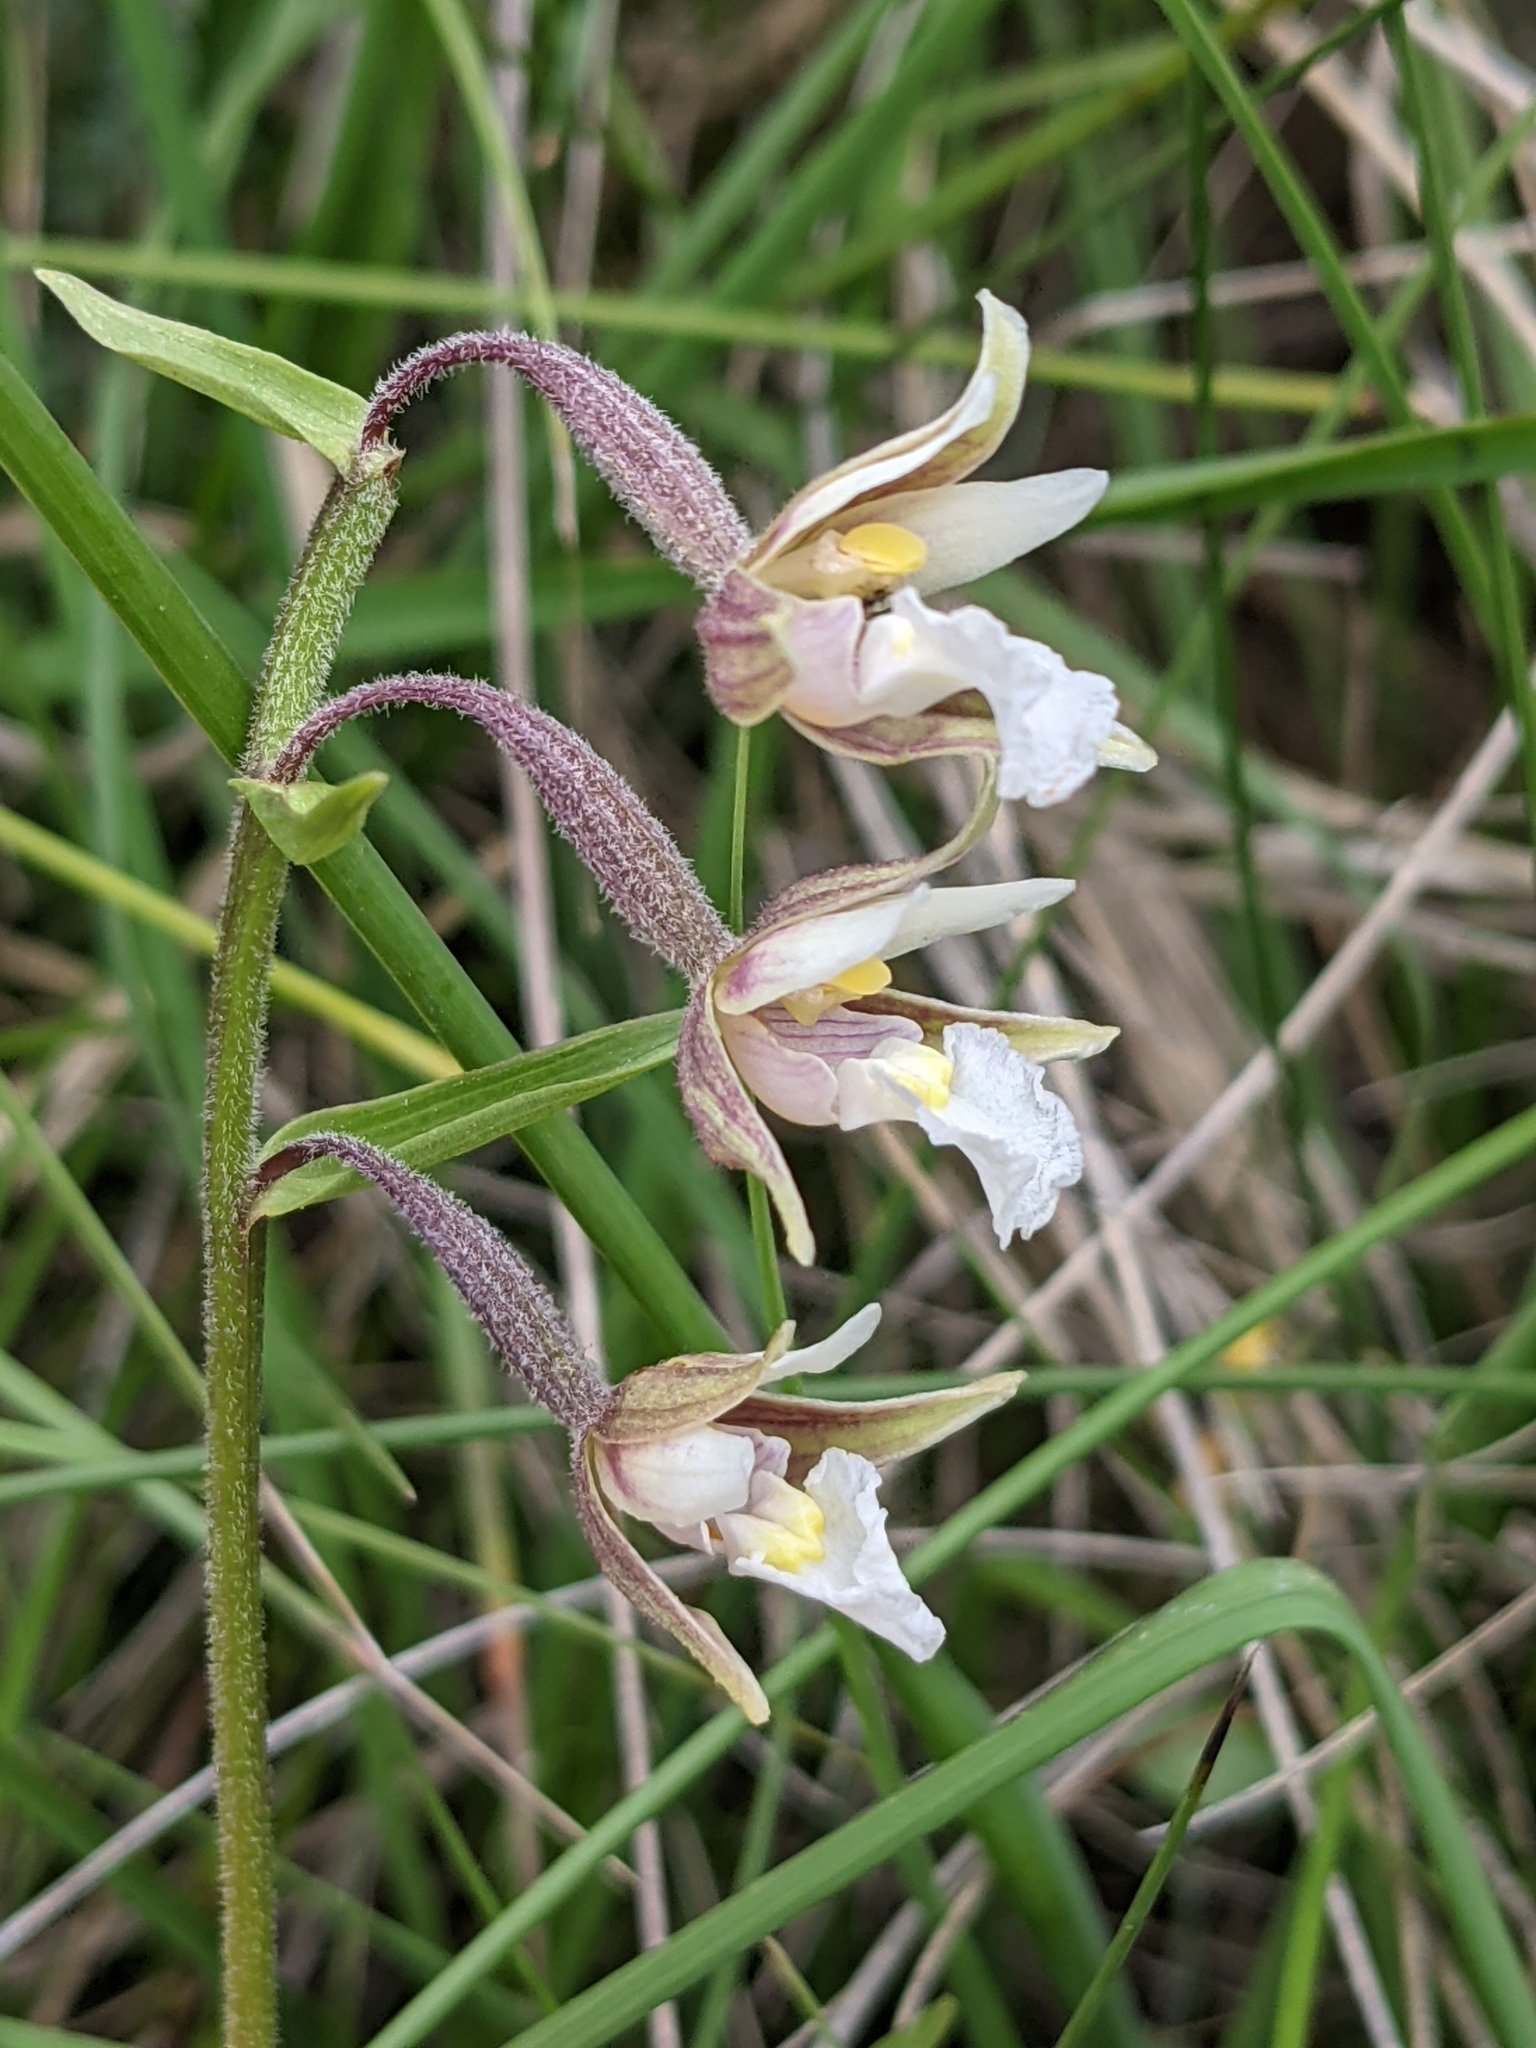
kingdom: Plantae
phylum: Tracheophyta
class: Liliopsida
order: Asparagales
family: Orchidaceae
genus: Epipactis
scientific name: Epipactis palustris
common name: Marsh helleborine
